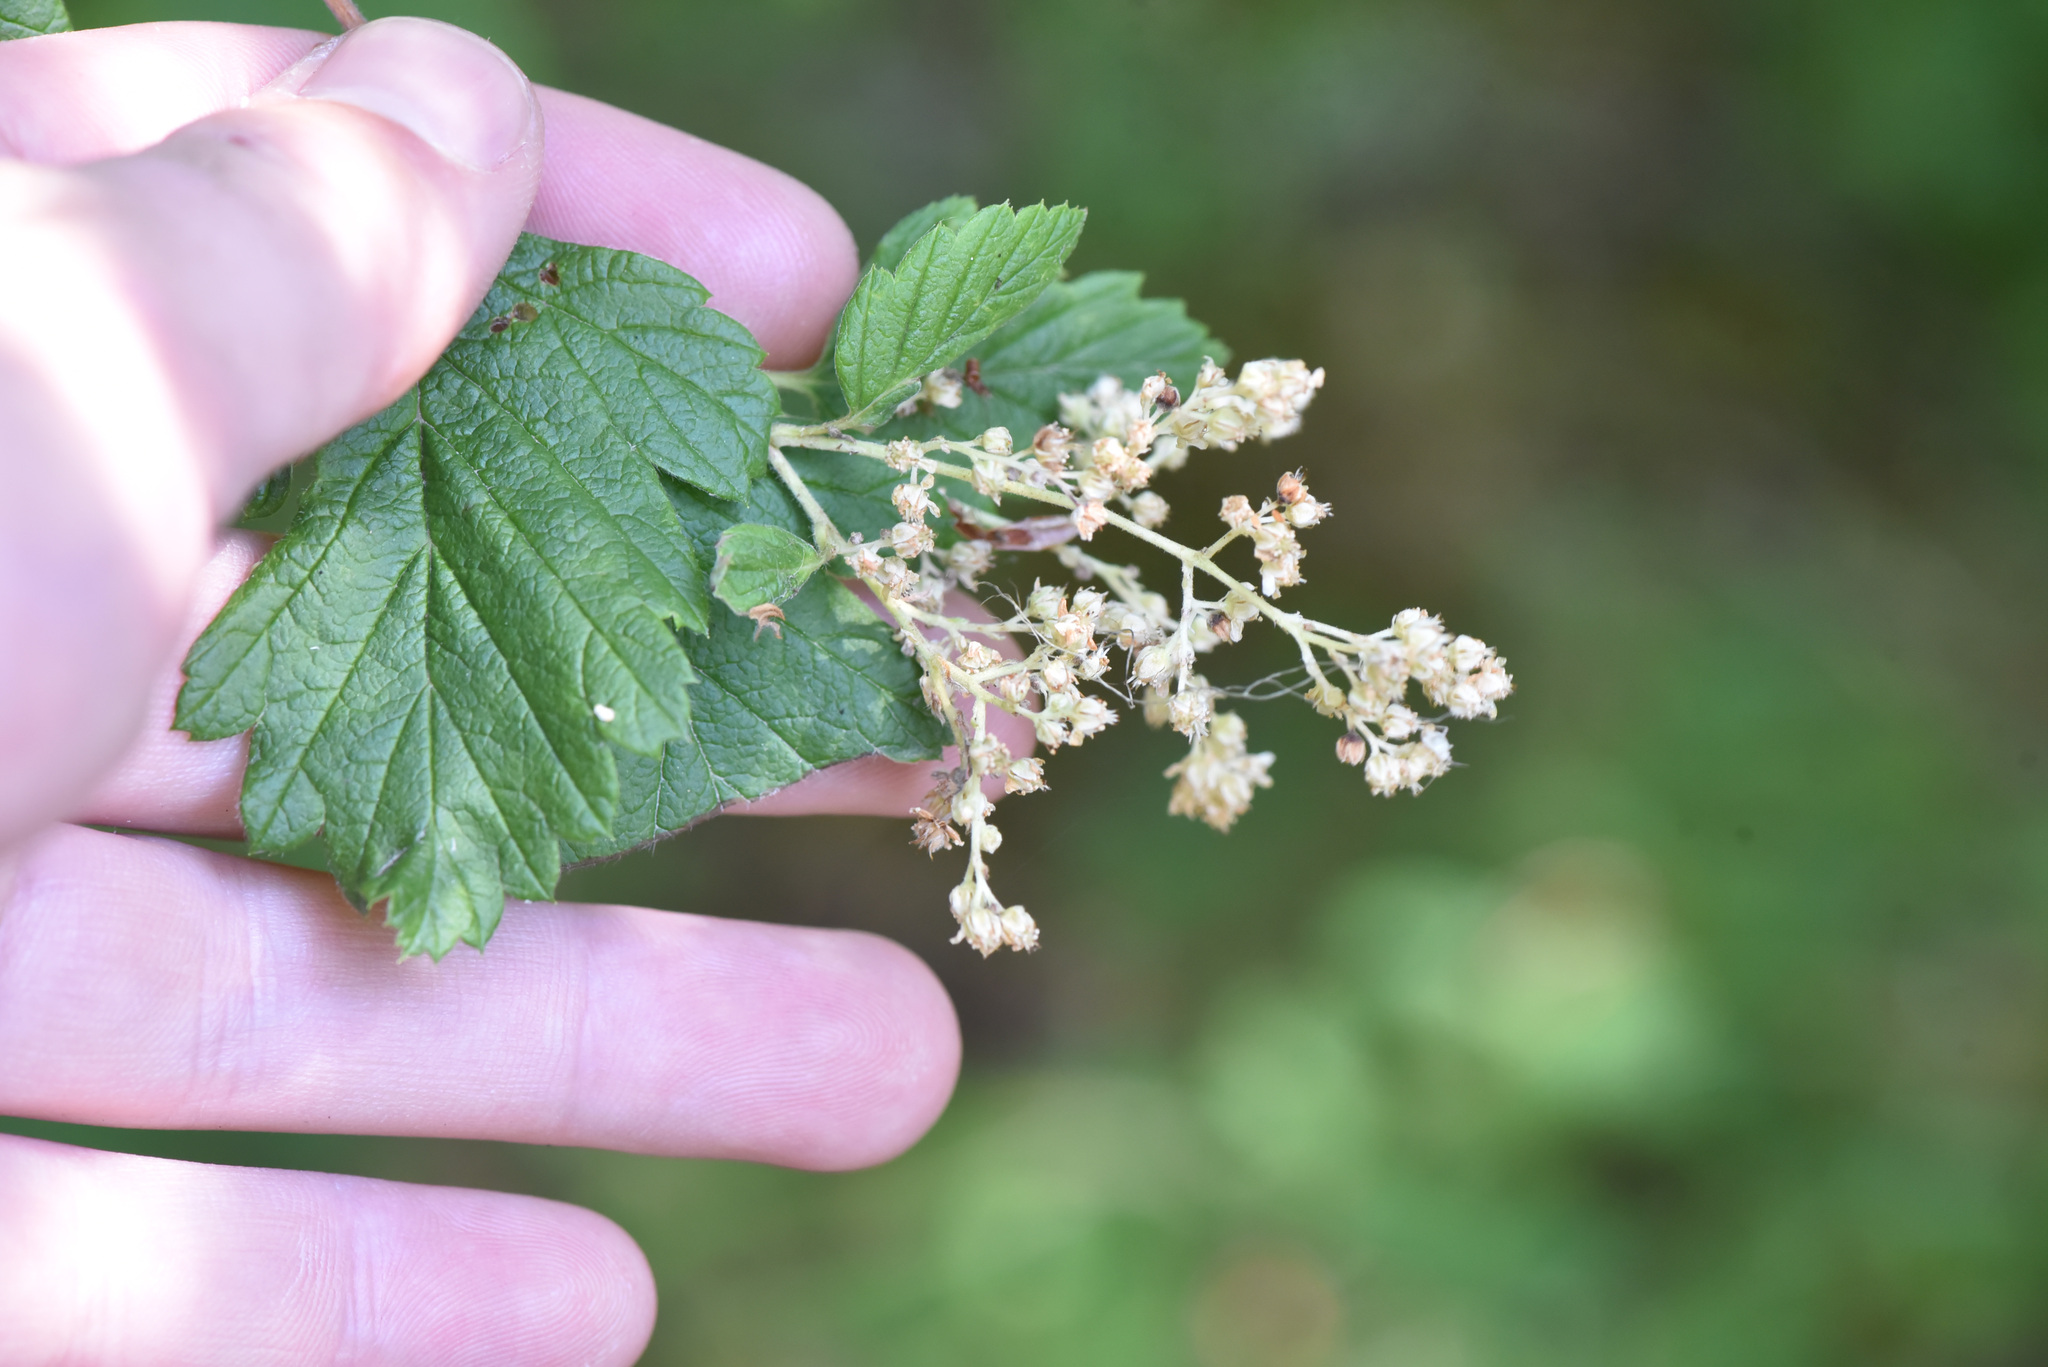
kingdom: Plantae
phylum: Tracheophyta
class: Magnoliopsida
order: Rosales
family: Rosaceae
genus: Holodiscus
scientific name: Holodiscus discolor
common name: Oceanspray
